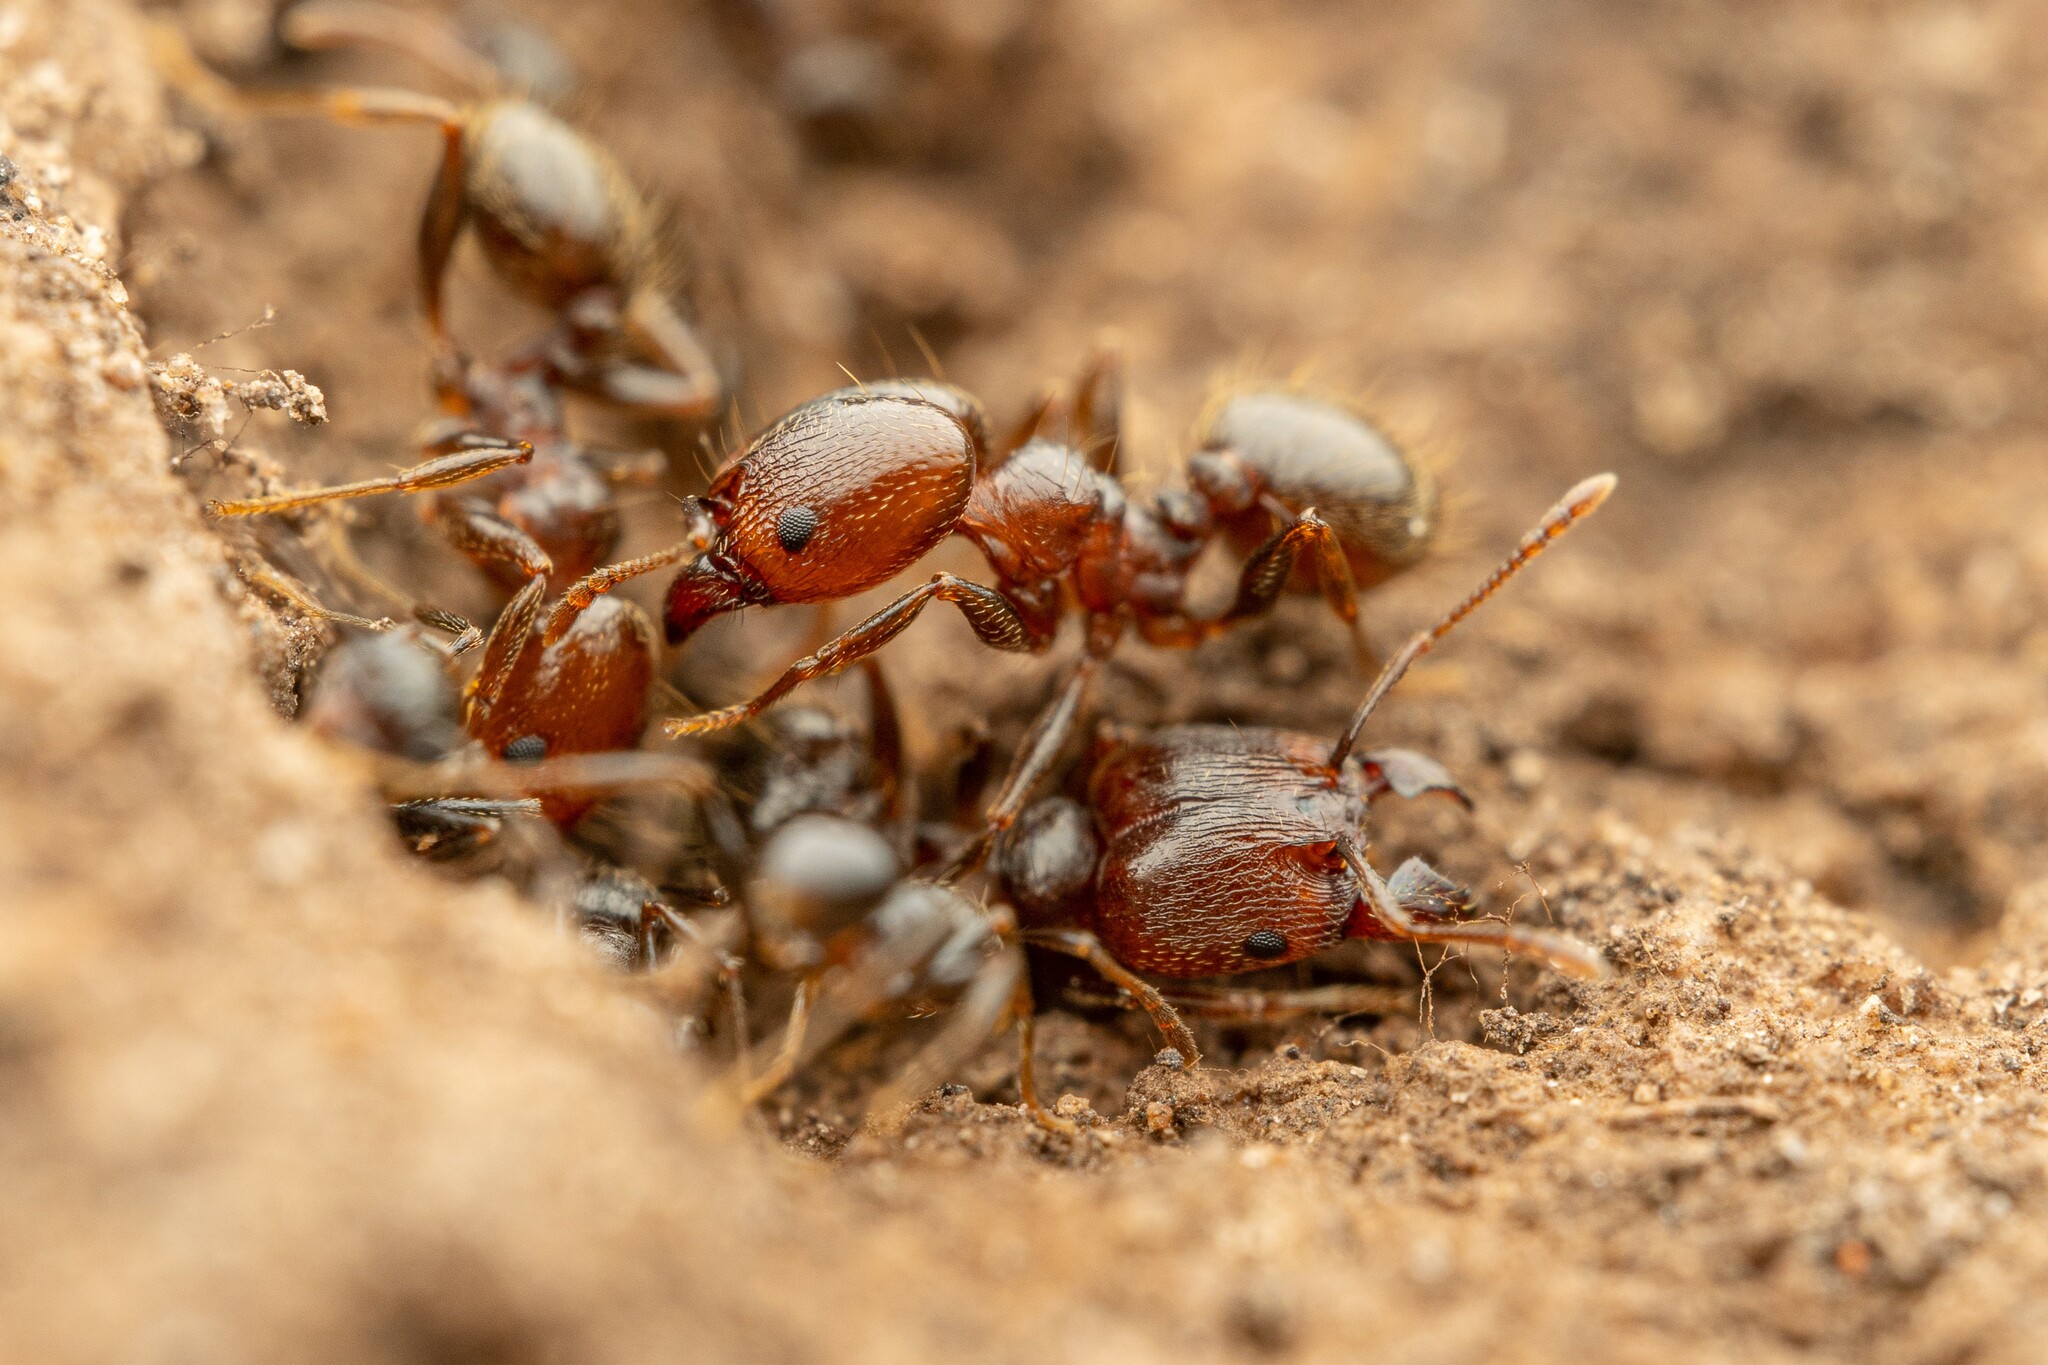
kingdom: Animalia
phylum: Arthropoda
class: Insecta
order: Hymenoptera
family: Formicidae
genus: Pheidole
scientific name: Pheidole vallicola
